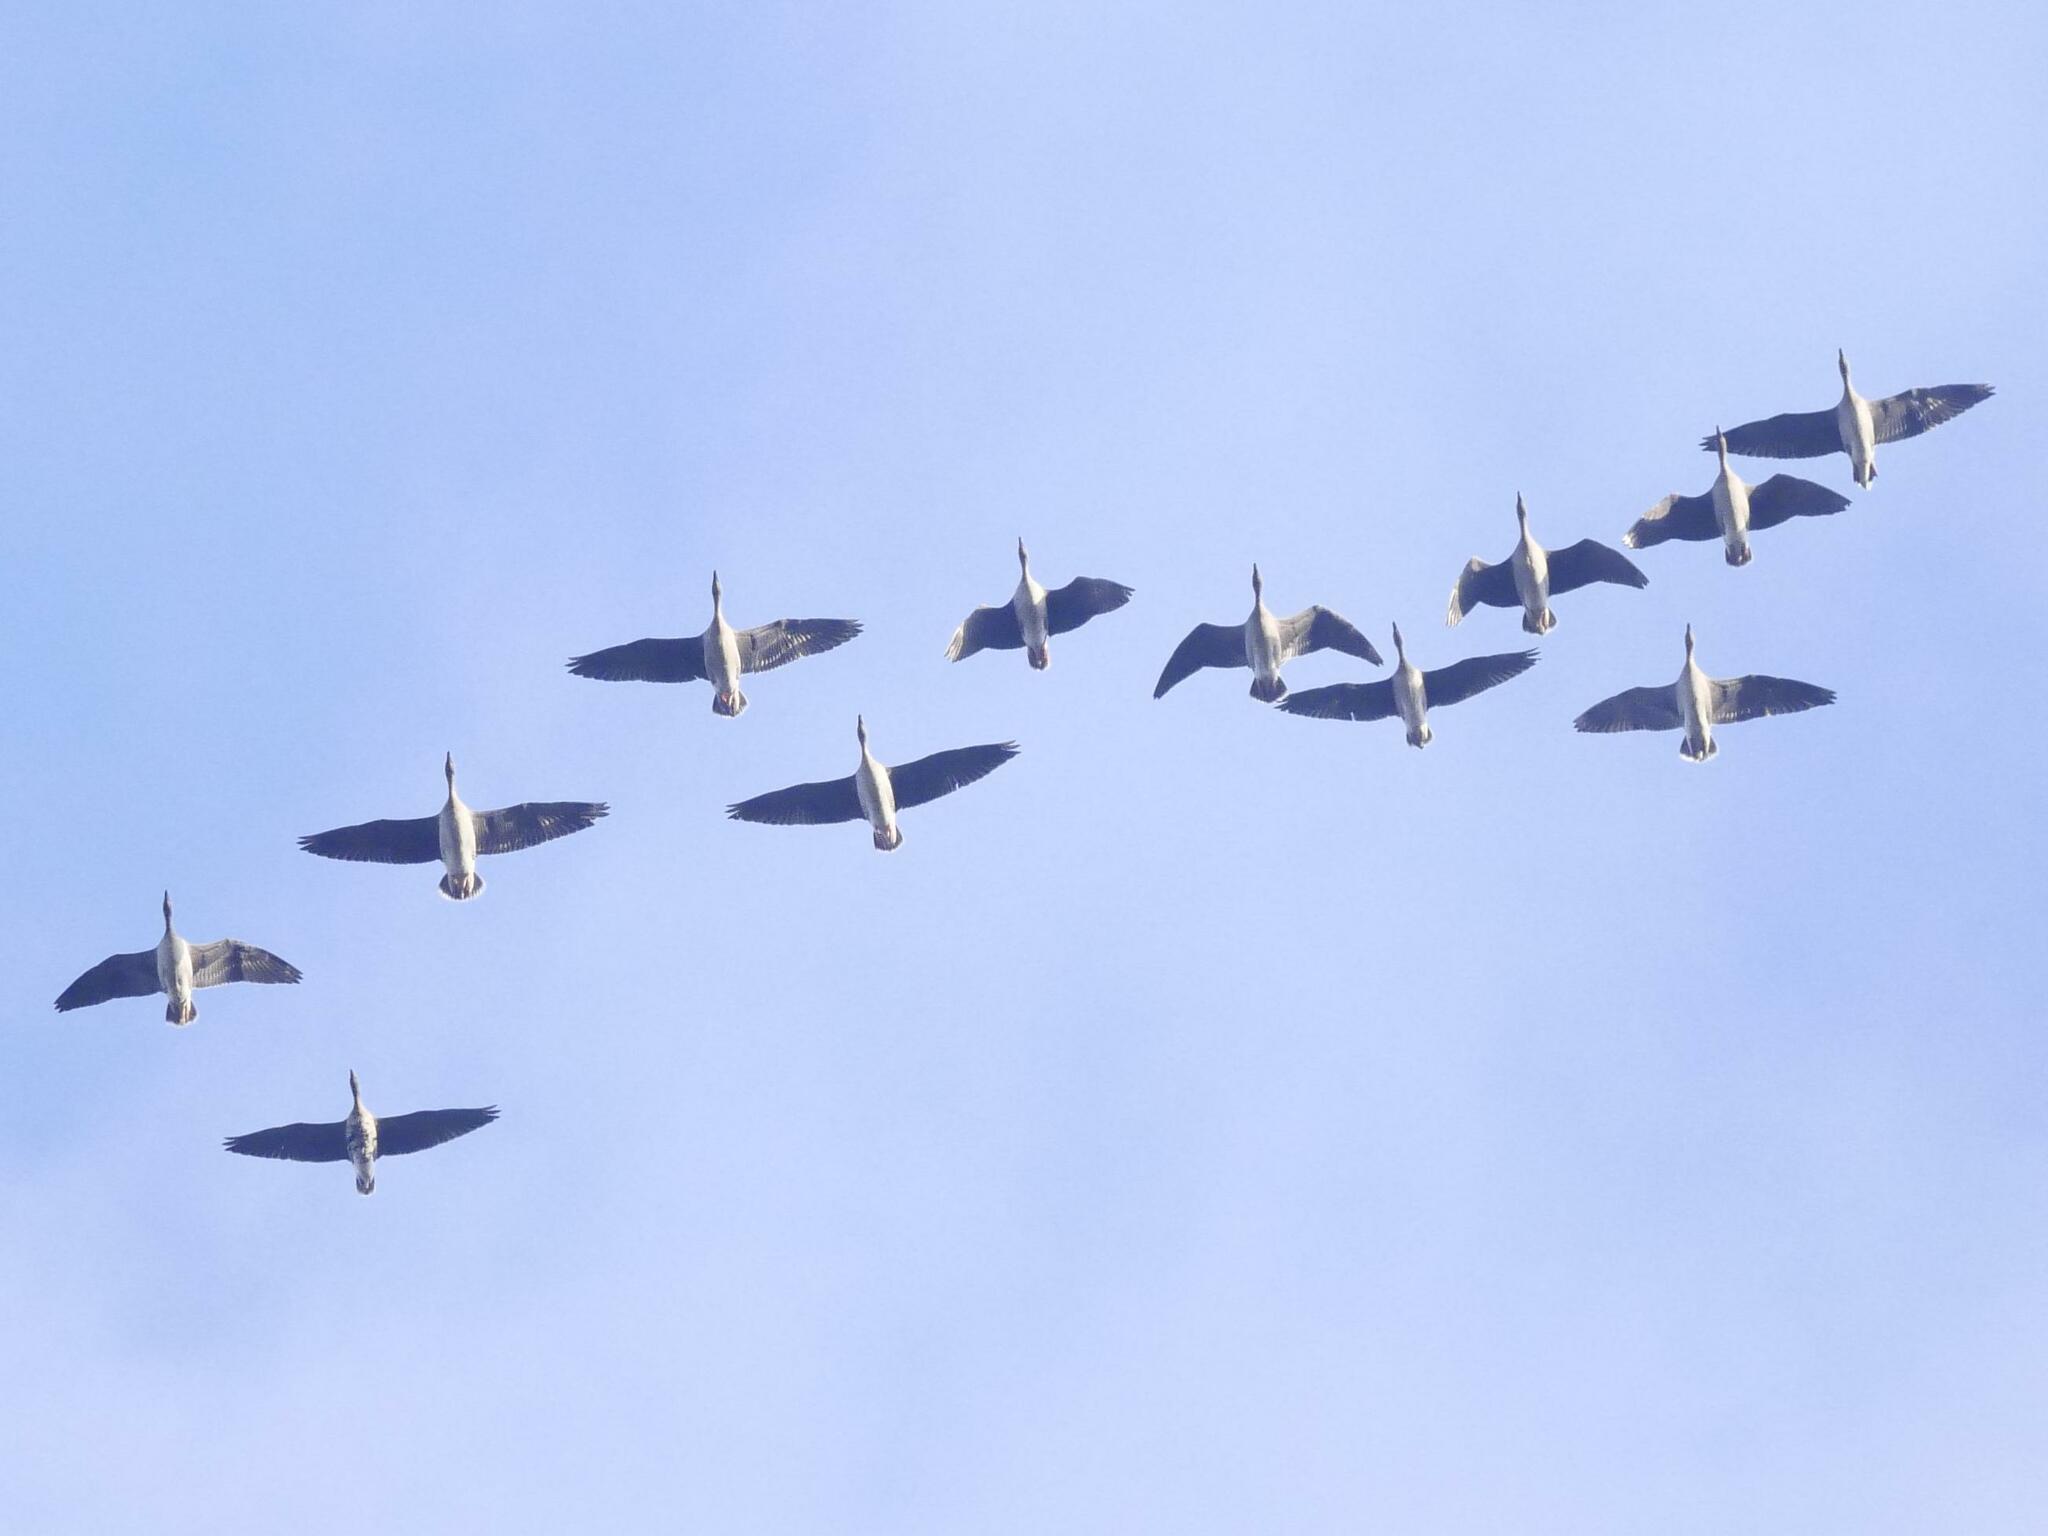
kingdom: Animalia
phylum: Chordata
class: Aves
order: Anseriformes
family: Anatidae
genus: Anser
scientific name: Anser anser
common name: Greylag goose
